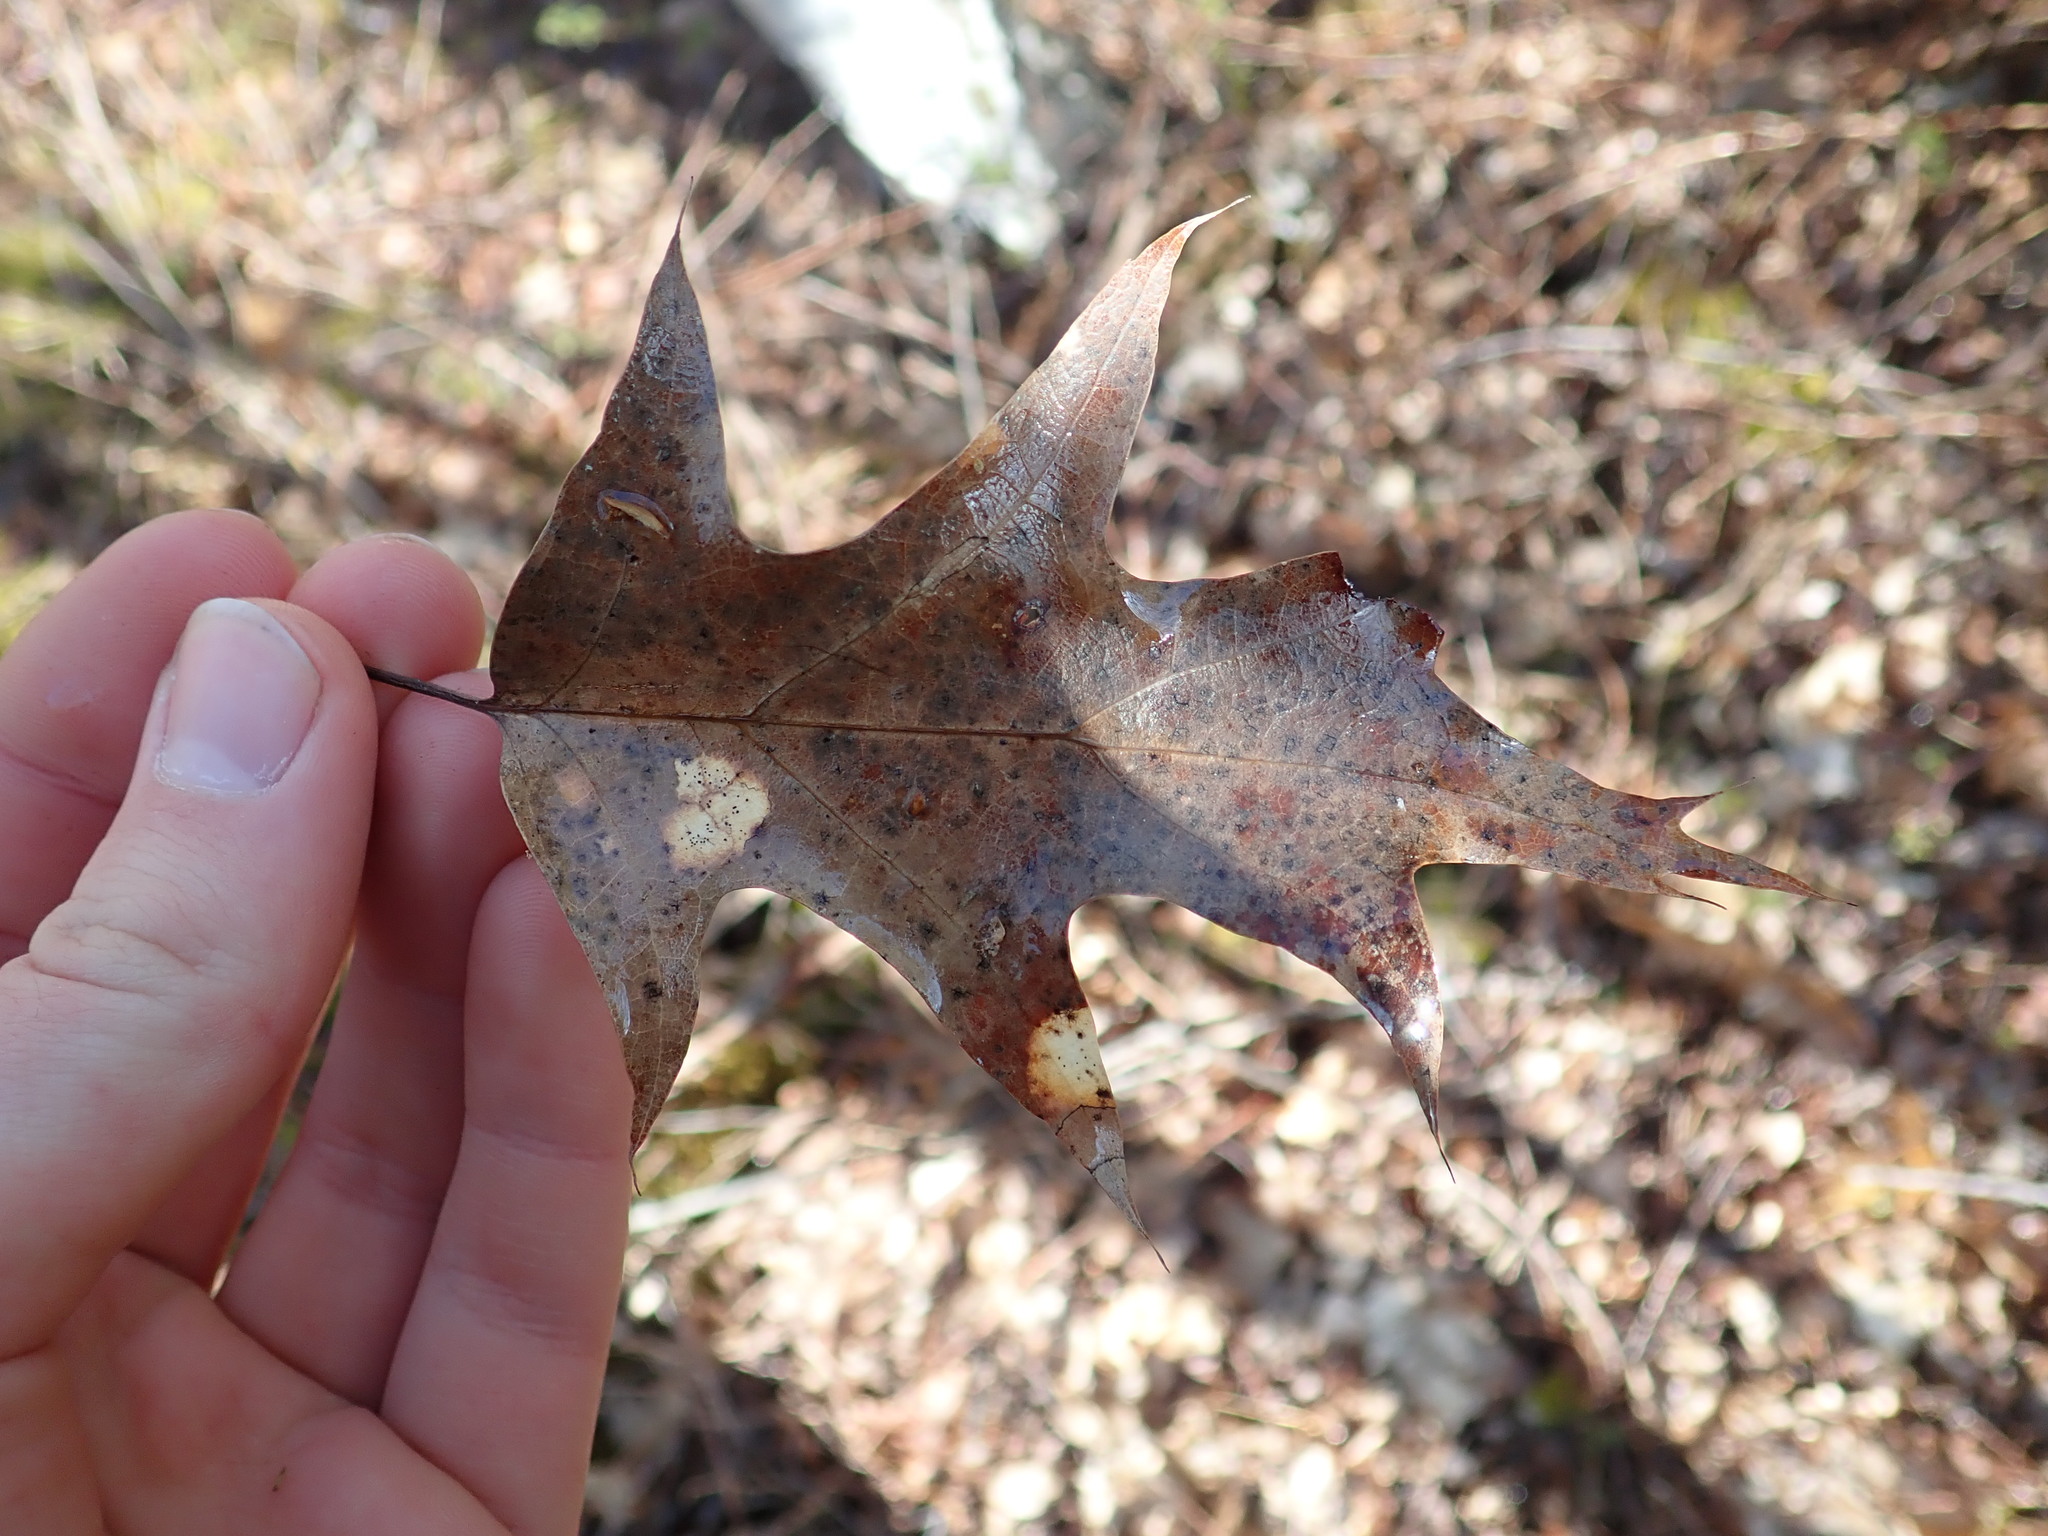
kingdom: Plantae
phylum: Tracheophyta
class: Magnoliopsida
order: Fagales
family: Fagaceae
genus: Quercus
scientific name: Quercus rubra
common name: Red oak
